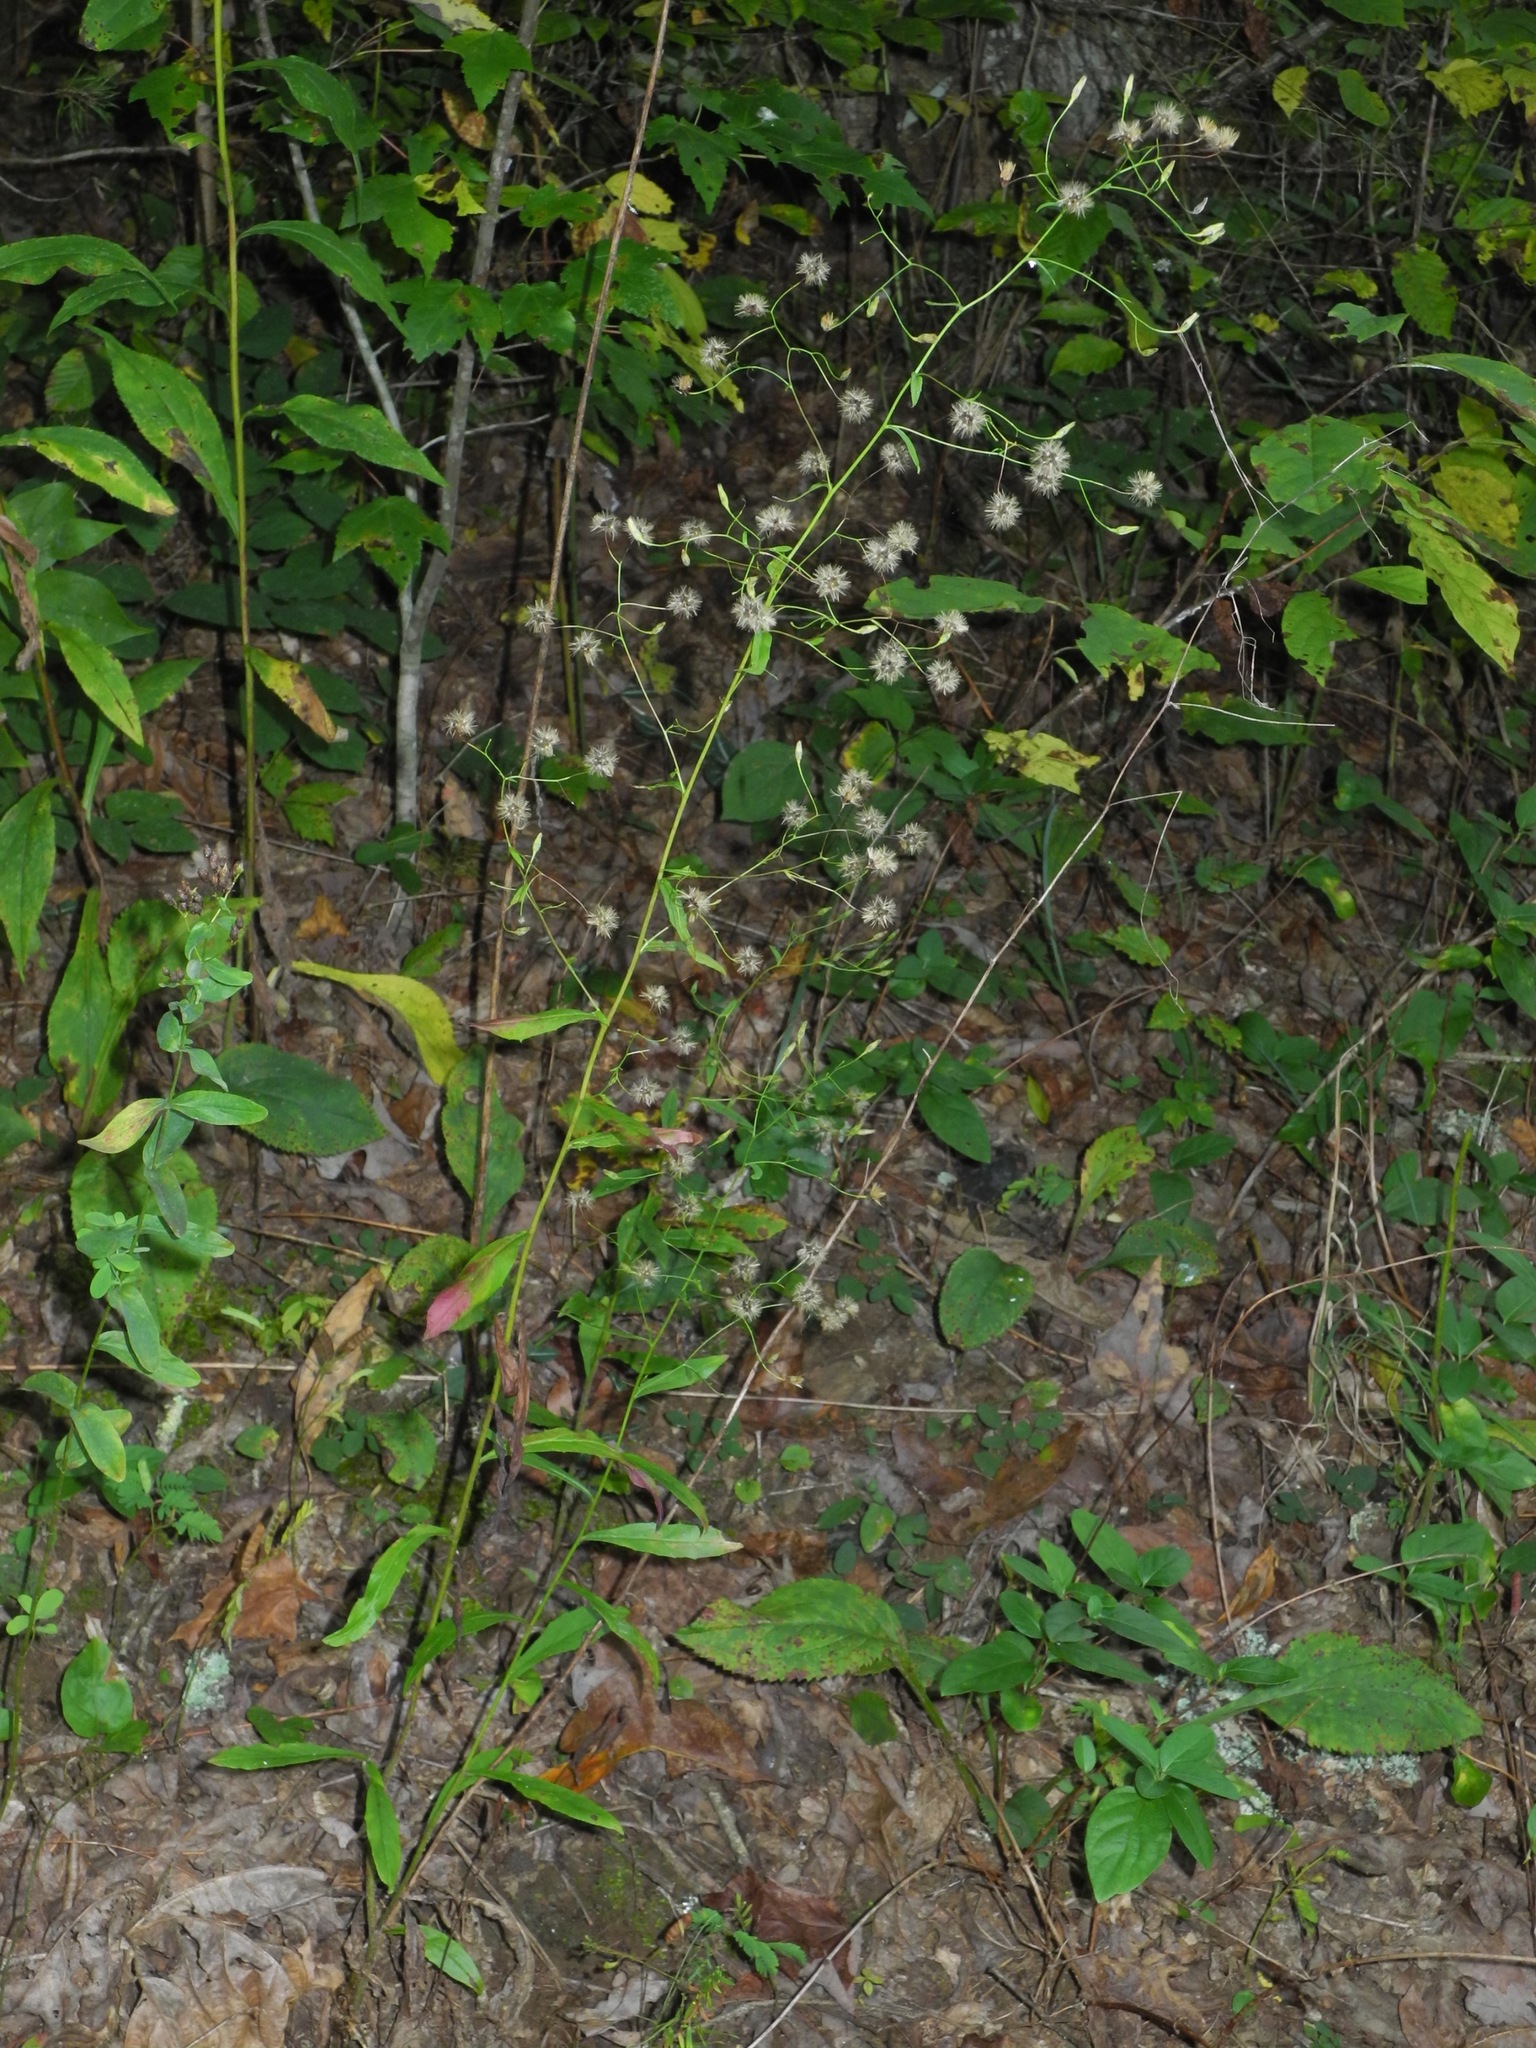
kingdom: Plantae
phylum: Tracheophyta
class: Magnoliopsida
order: Asterales
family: Asteraceae
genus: Hieracium
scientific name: Hieracium paniculatum
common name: Allegheny hawkweed
